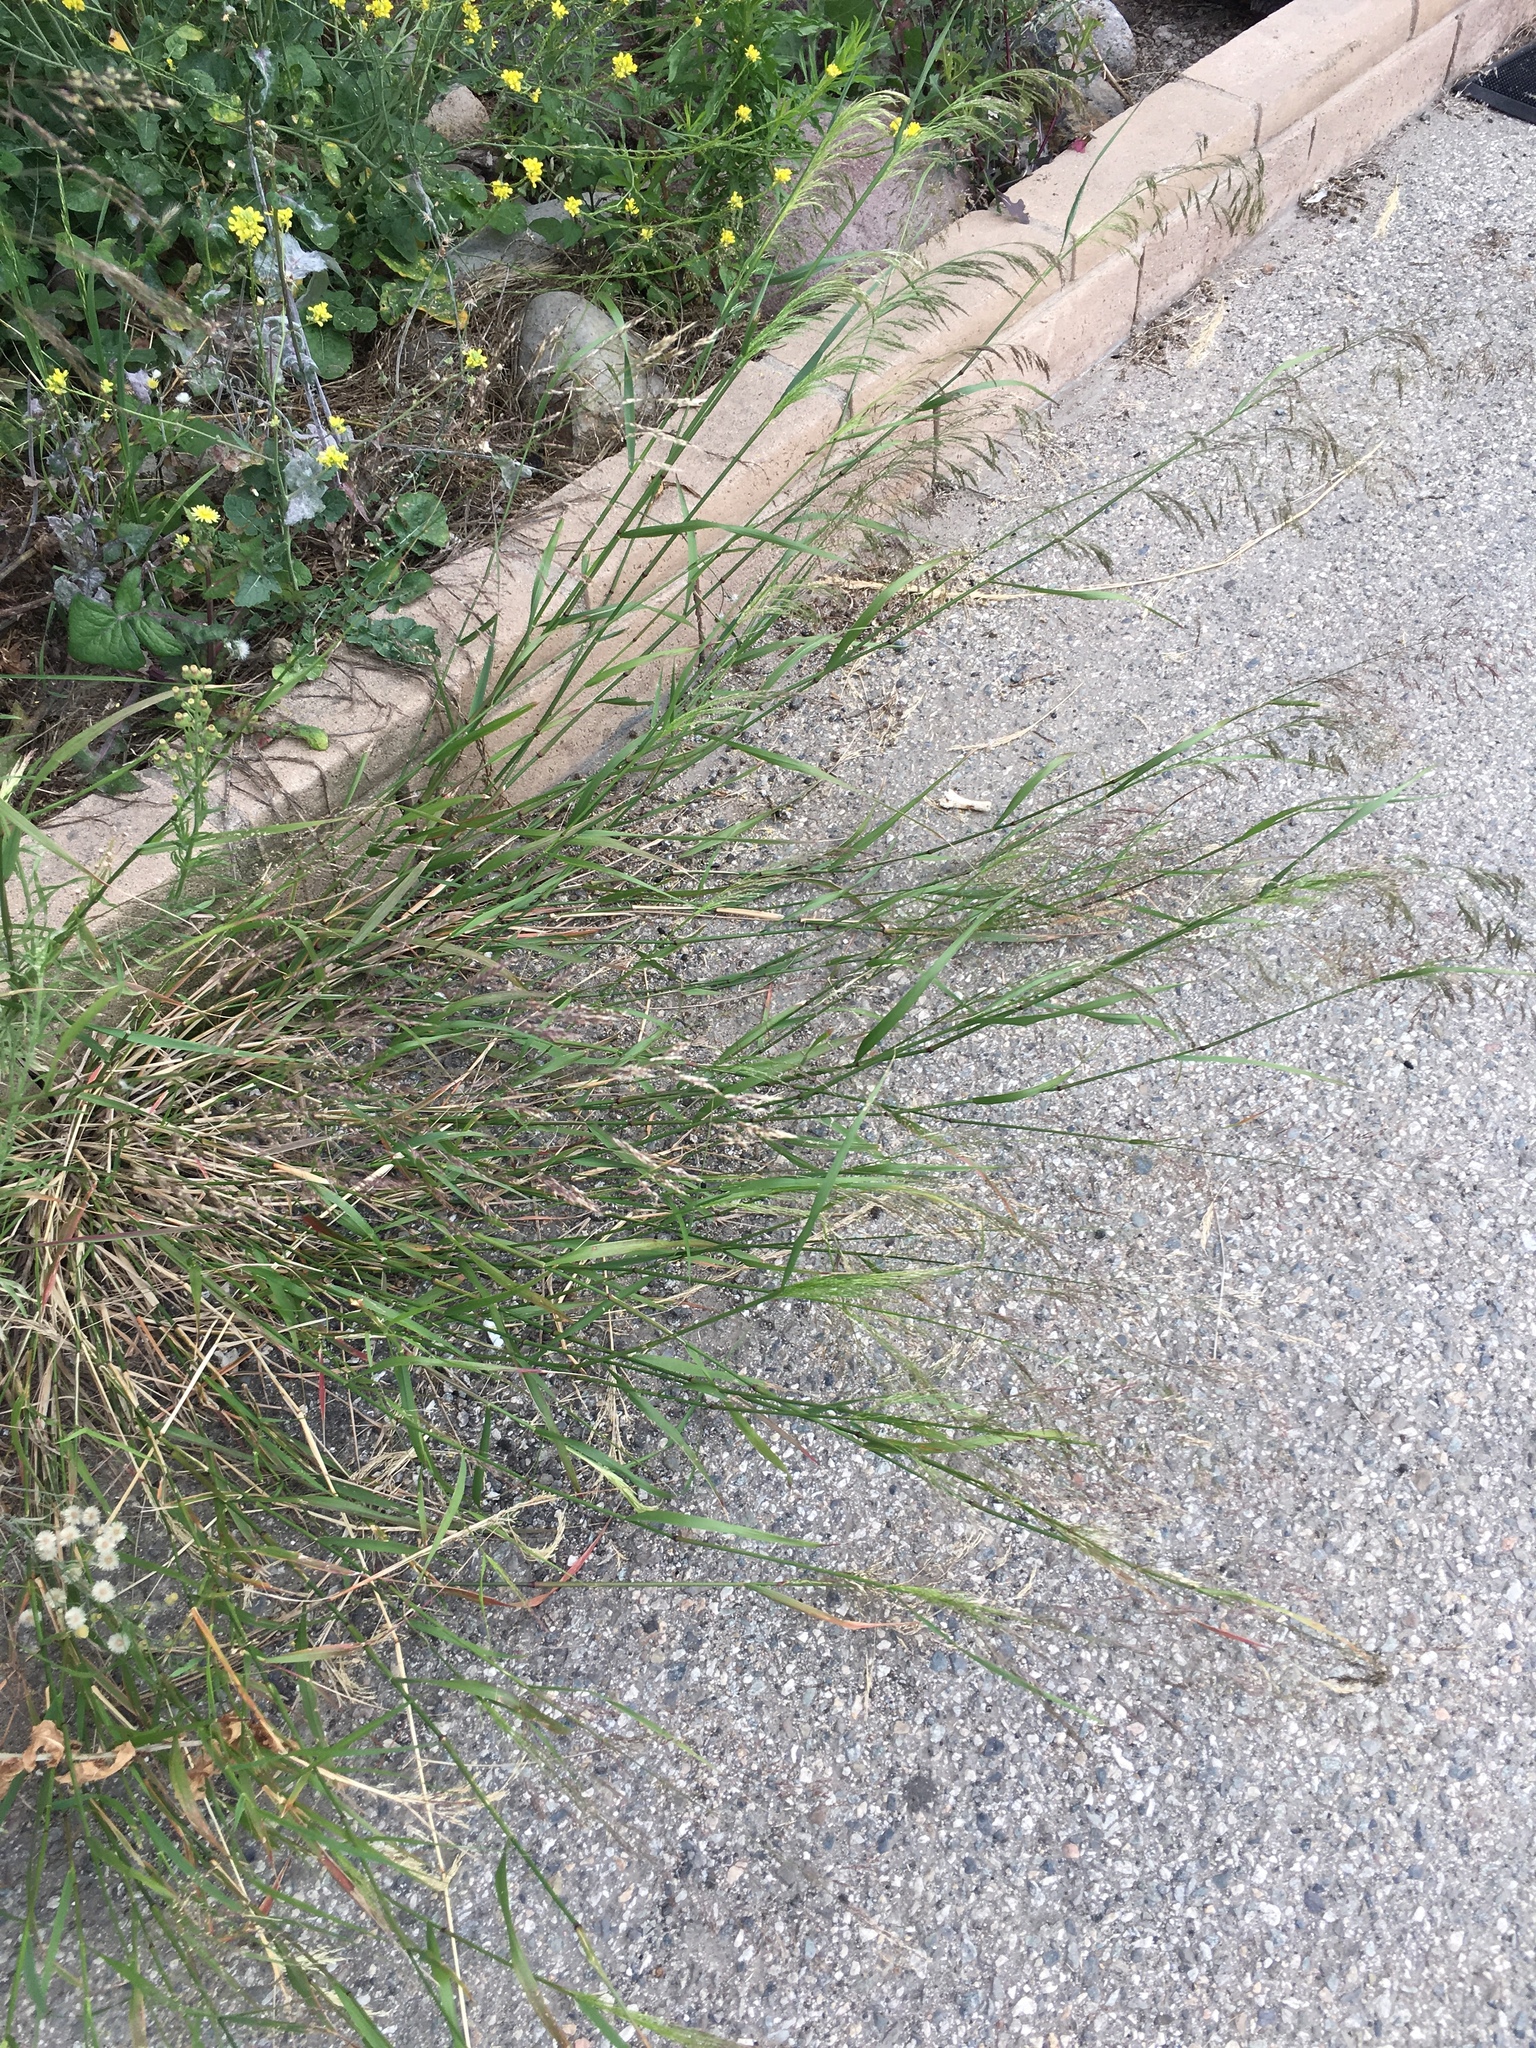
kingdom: Plantae
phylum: Tracheophyta
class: Liliopsida
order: Poales
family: Poaceae
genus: Oloptum
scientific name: Oloptum miliaceum
